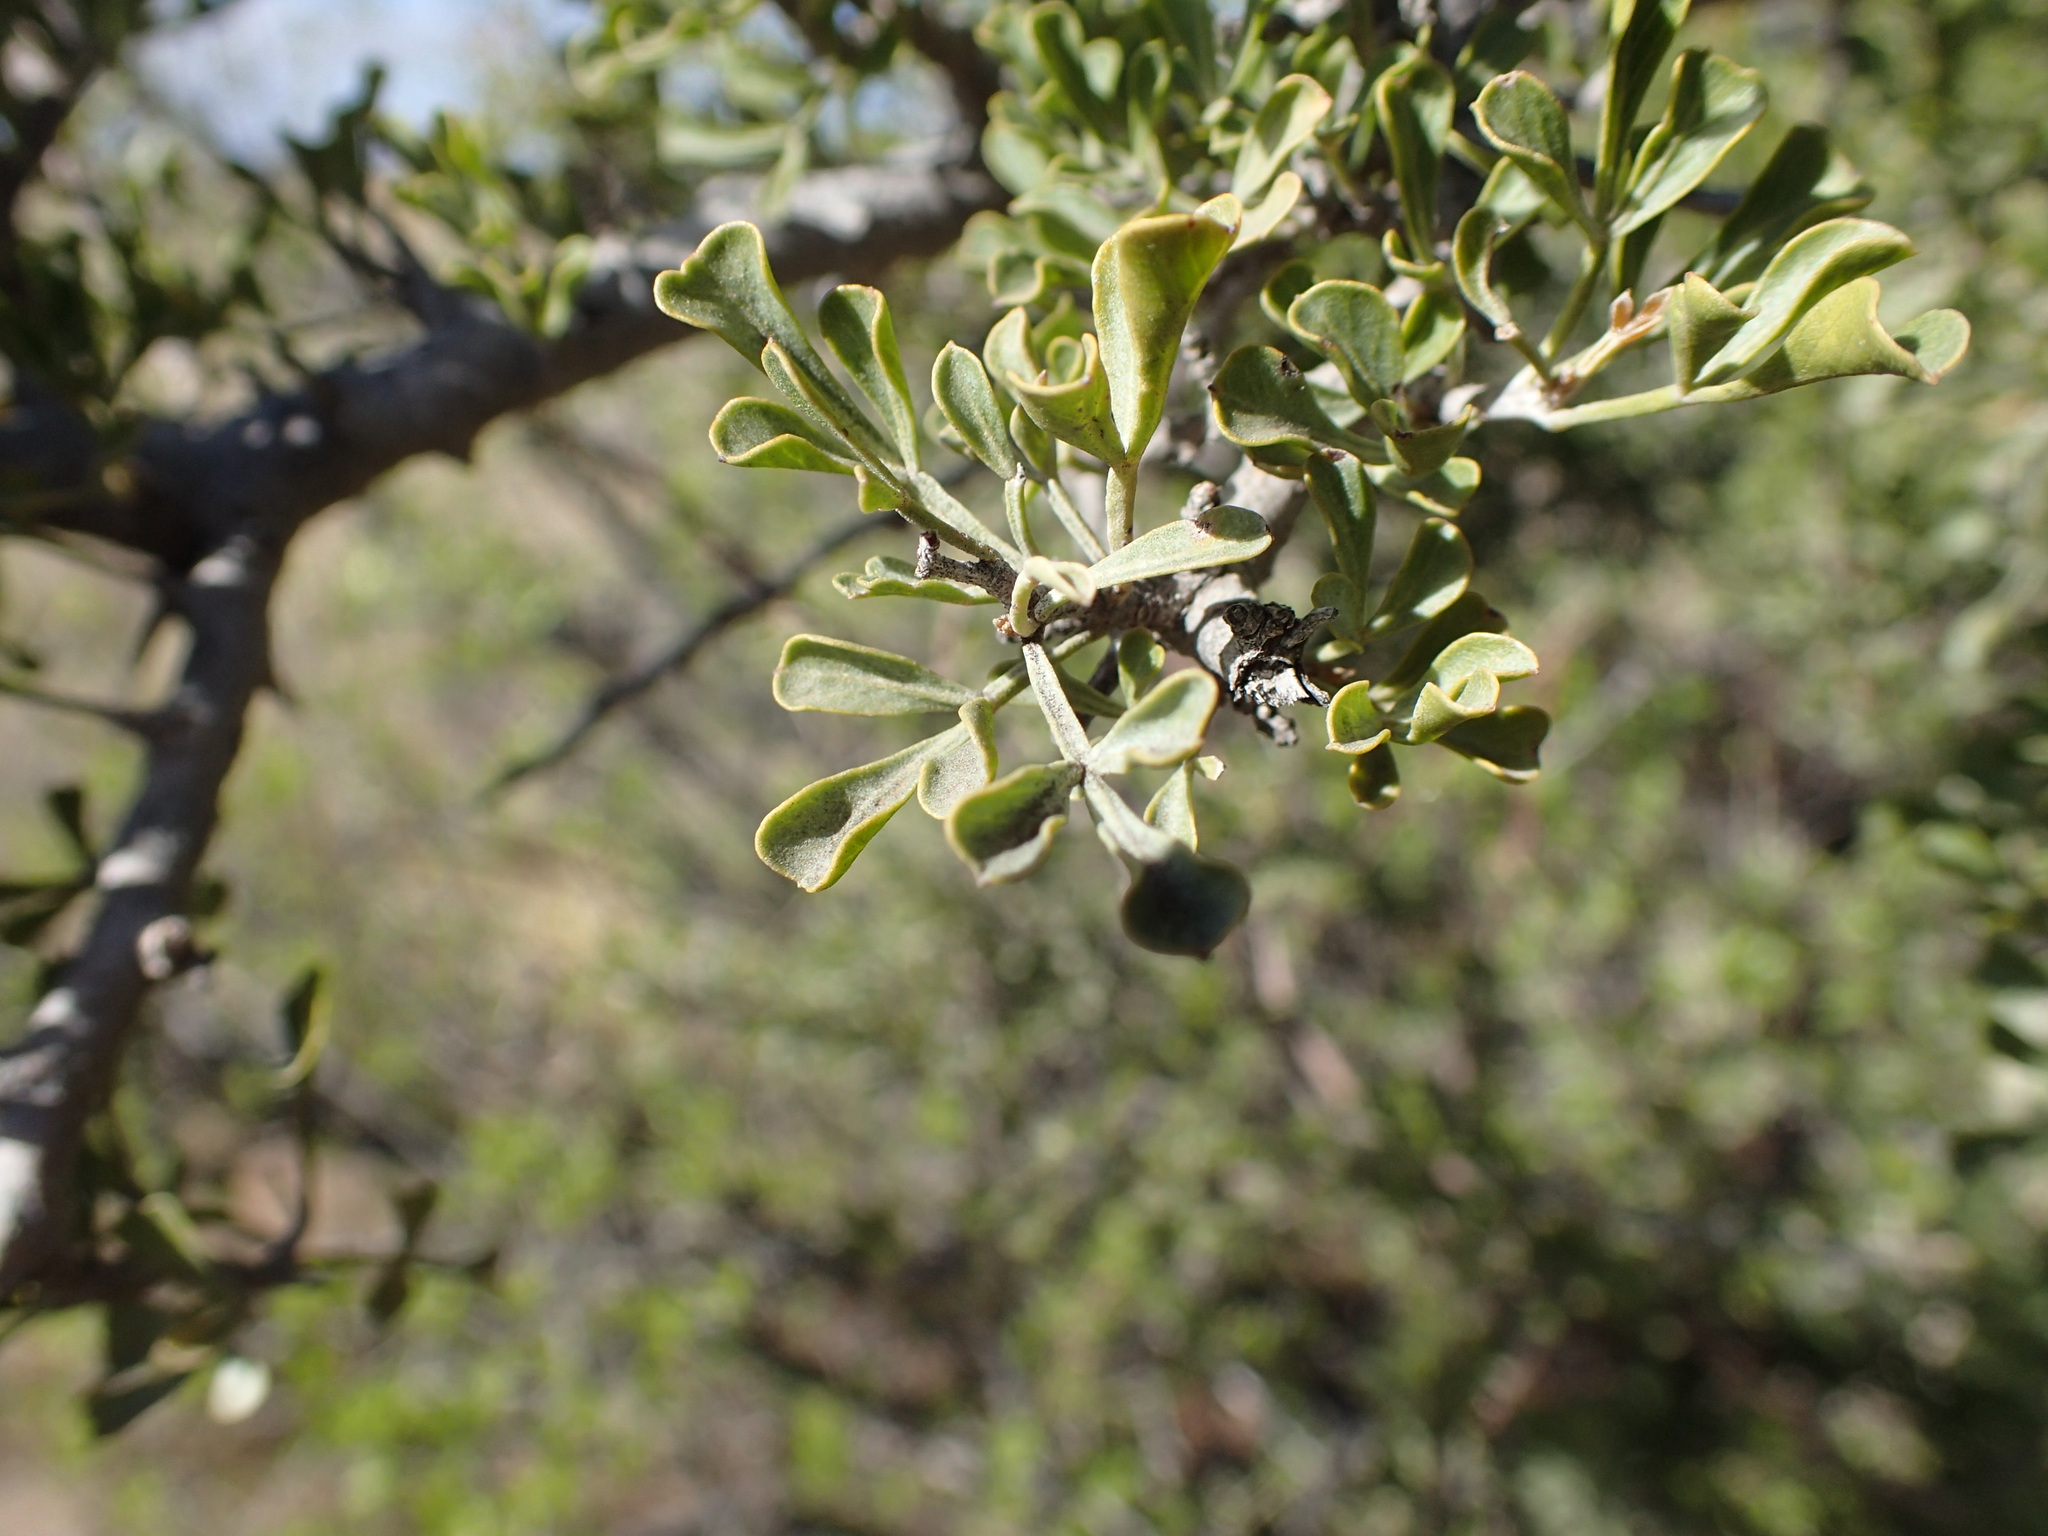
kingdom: Plantae
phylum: Tracheophyta
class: Magnoliopsida
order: Sapindales
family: Anacardiaceae
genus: Searsia
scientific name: Searsia burchellii
